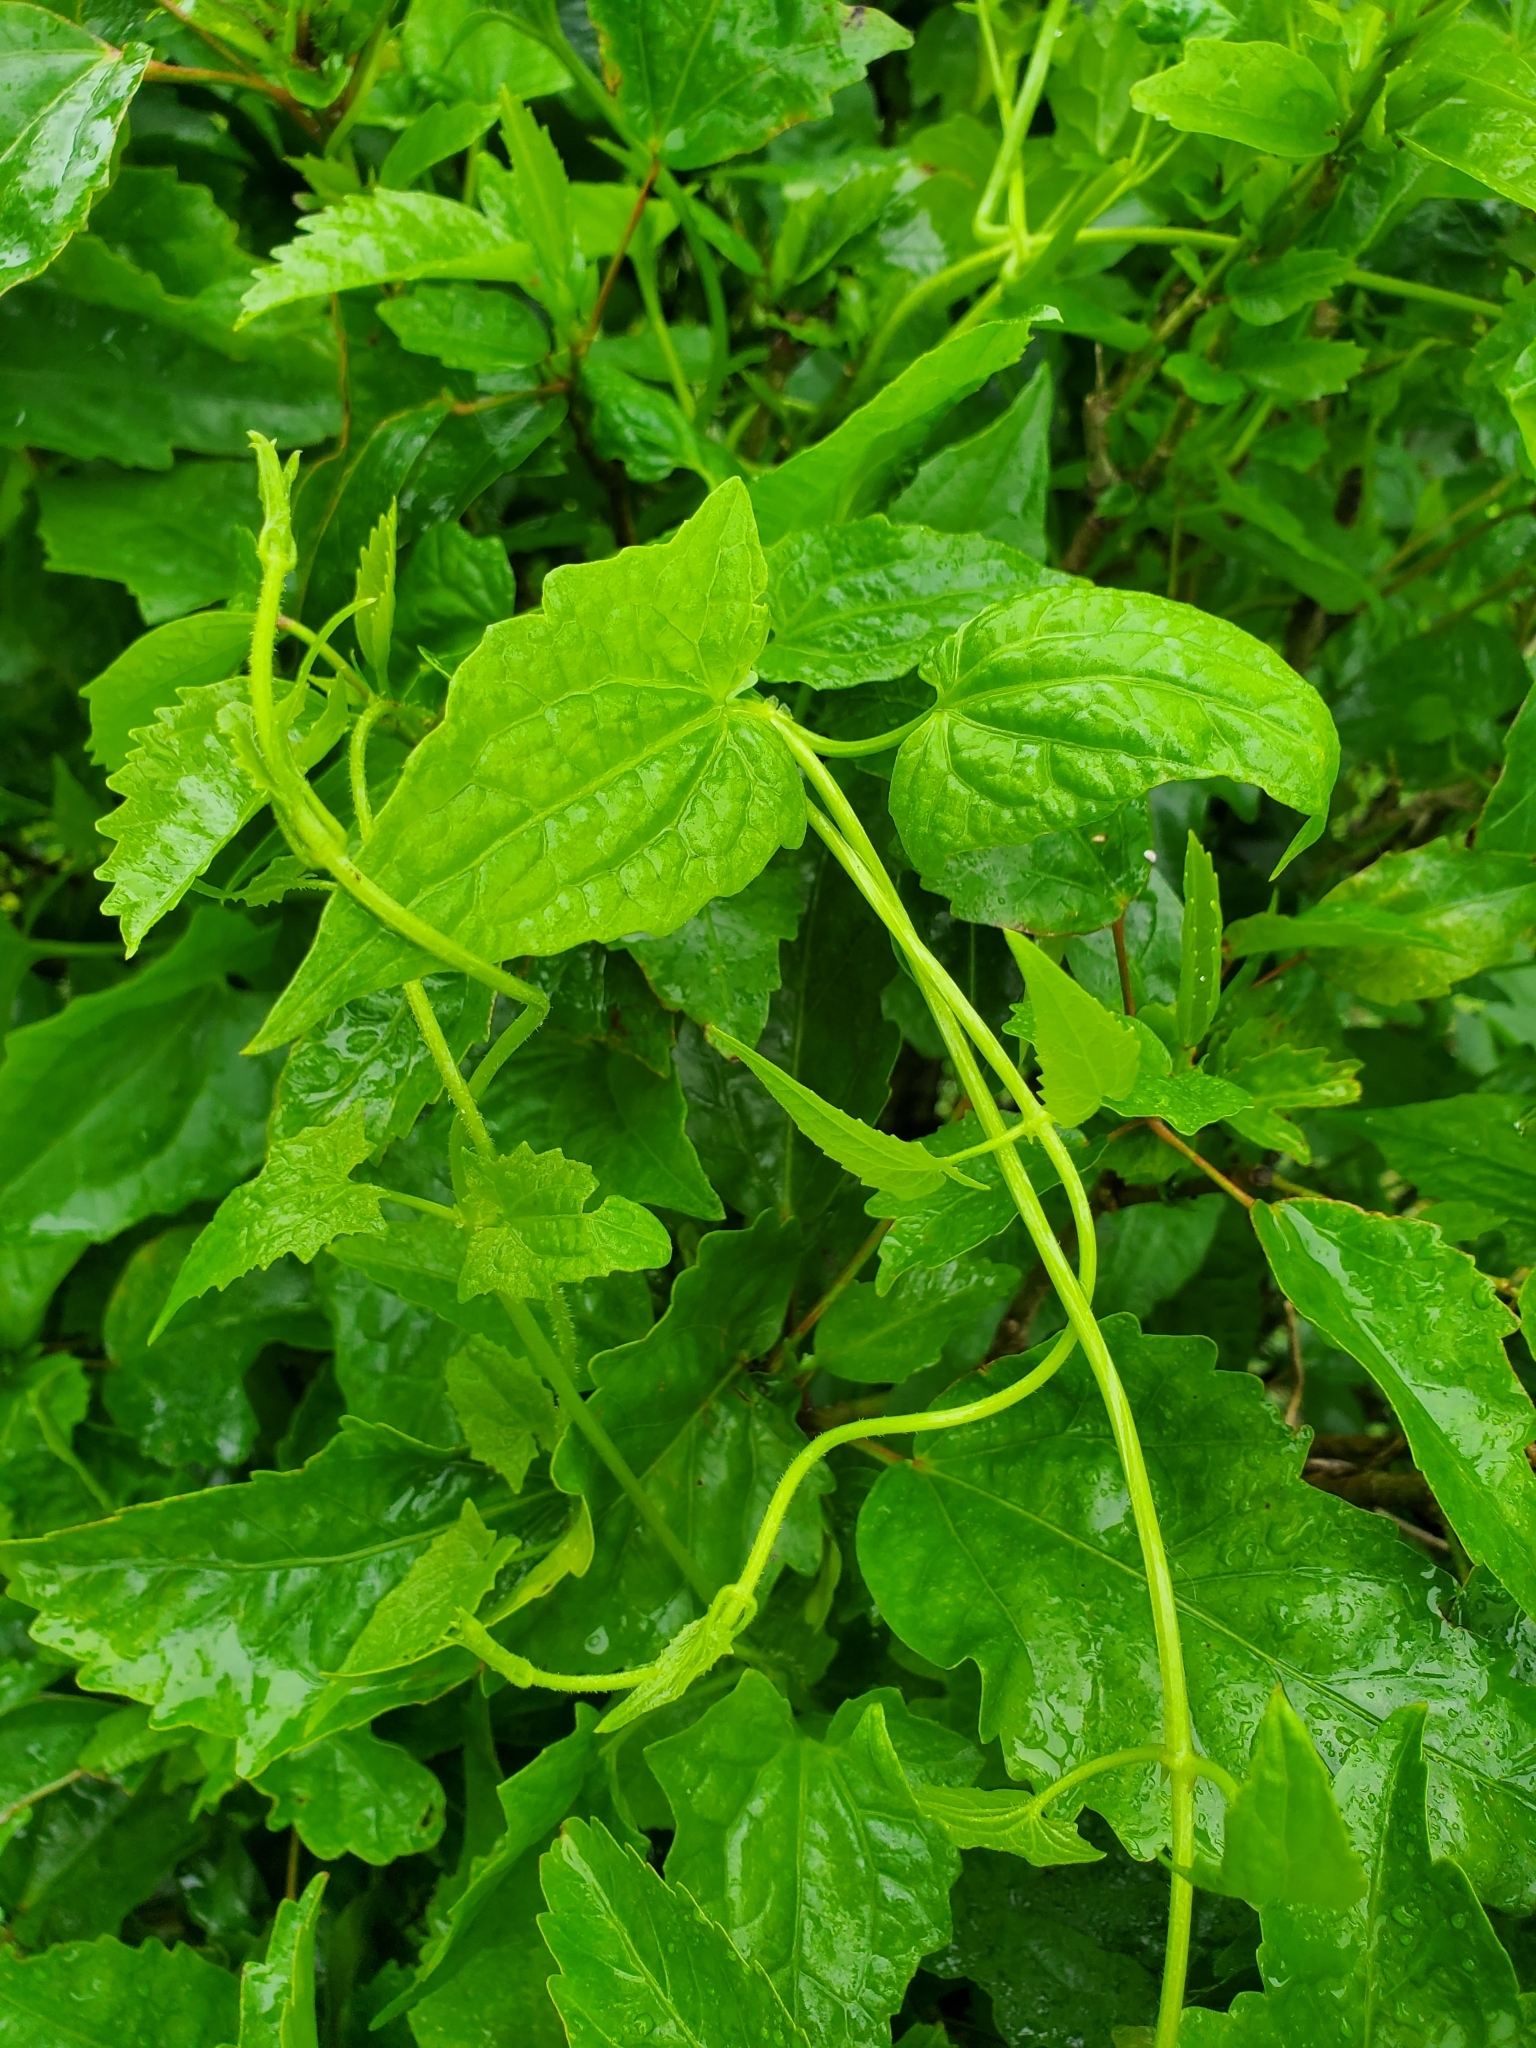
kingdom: Plantae
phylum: Tracheophyta
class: Magnoliopsida
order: Asterales
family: Asteraceae
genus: Mikania
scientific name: Mikania micrantha
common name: Mile-a-minute
